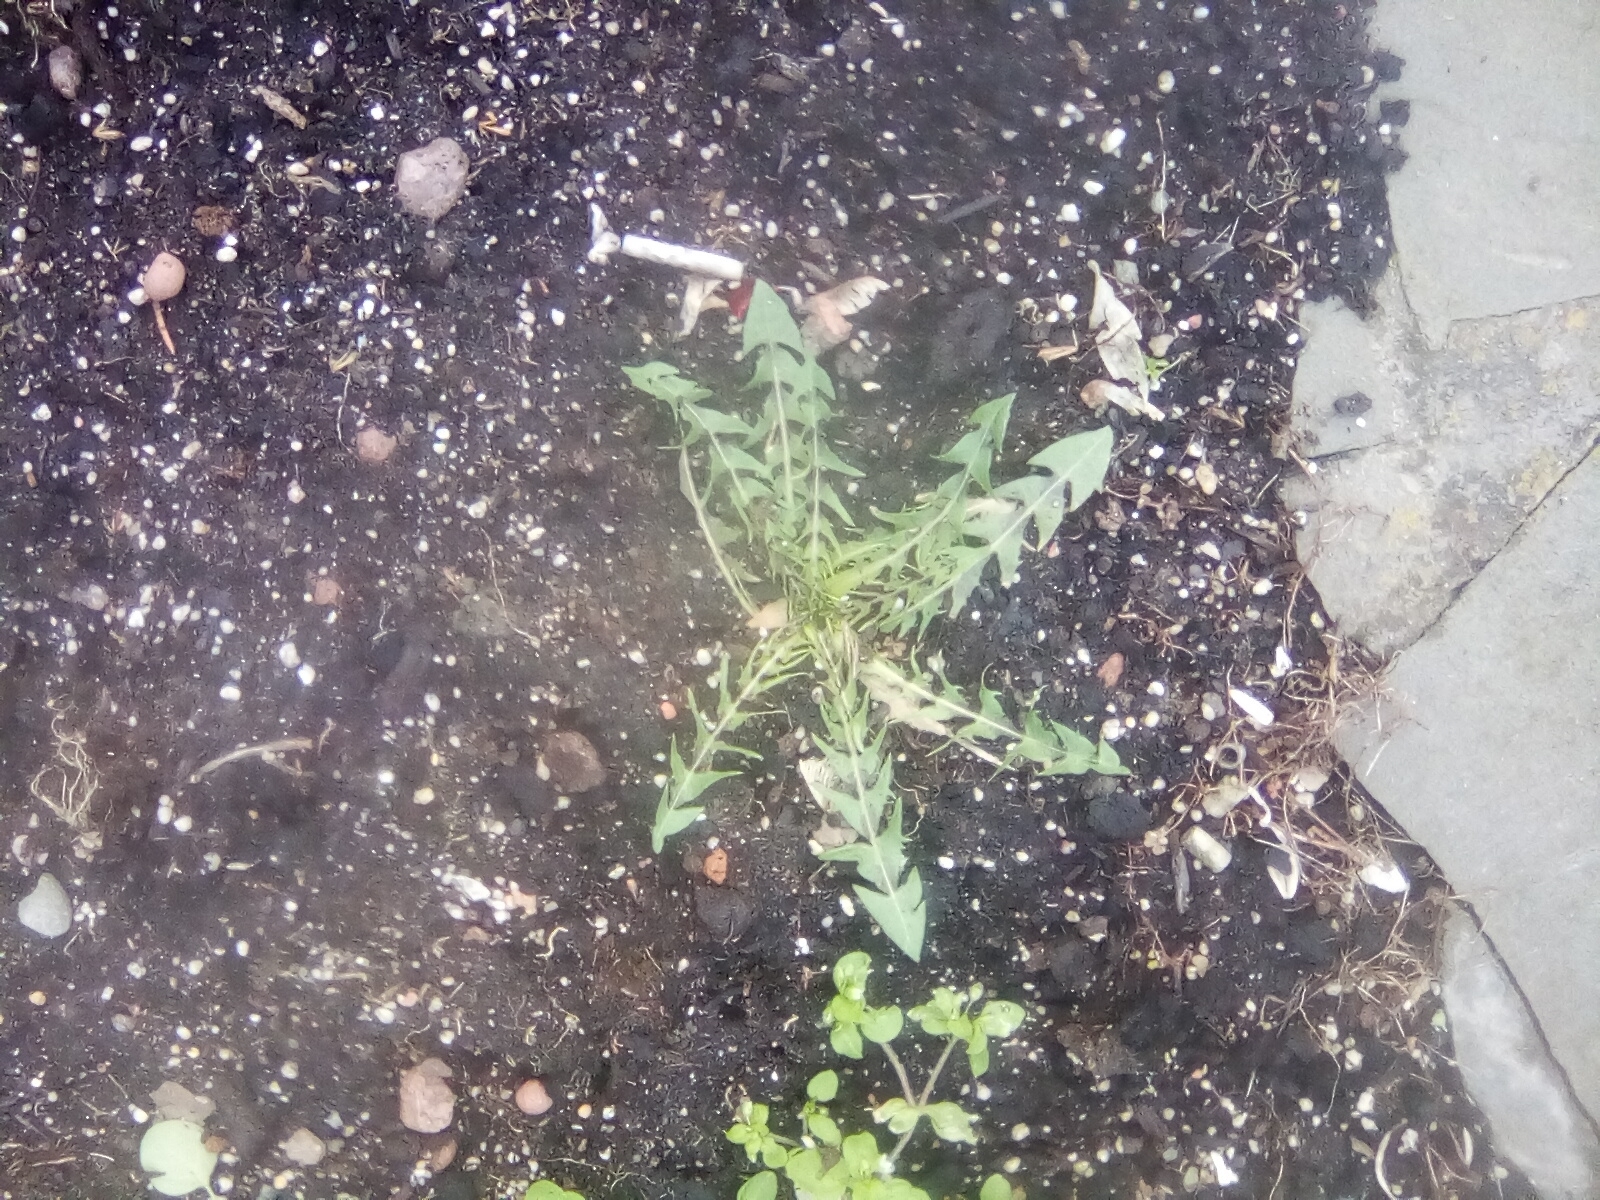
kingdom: Plantae
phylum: Tracheophyta
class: Magnoliopsida
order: Asterales
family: Asteraceae
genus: Taraxacum
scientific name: Taraxacum
